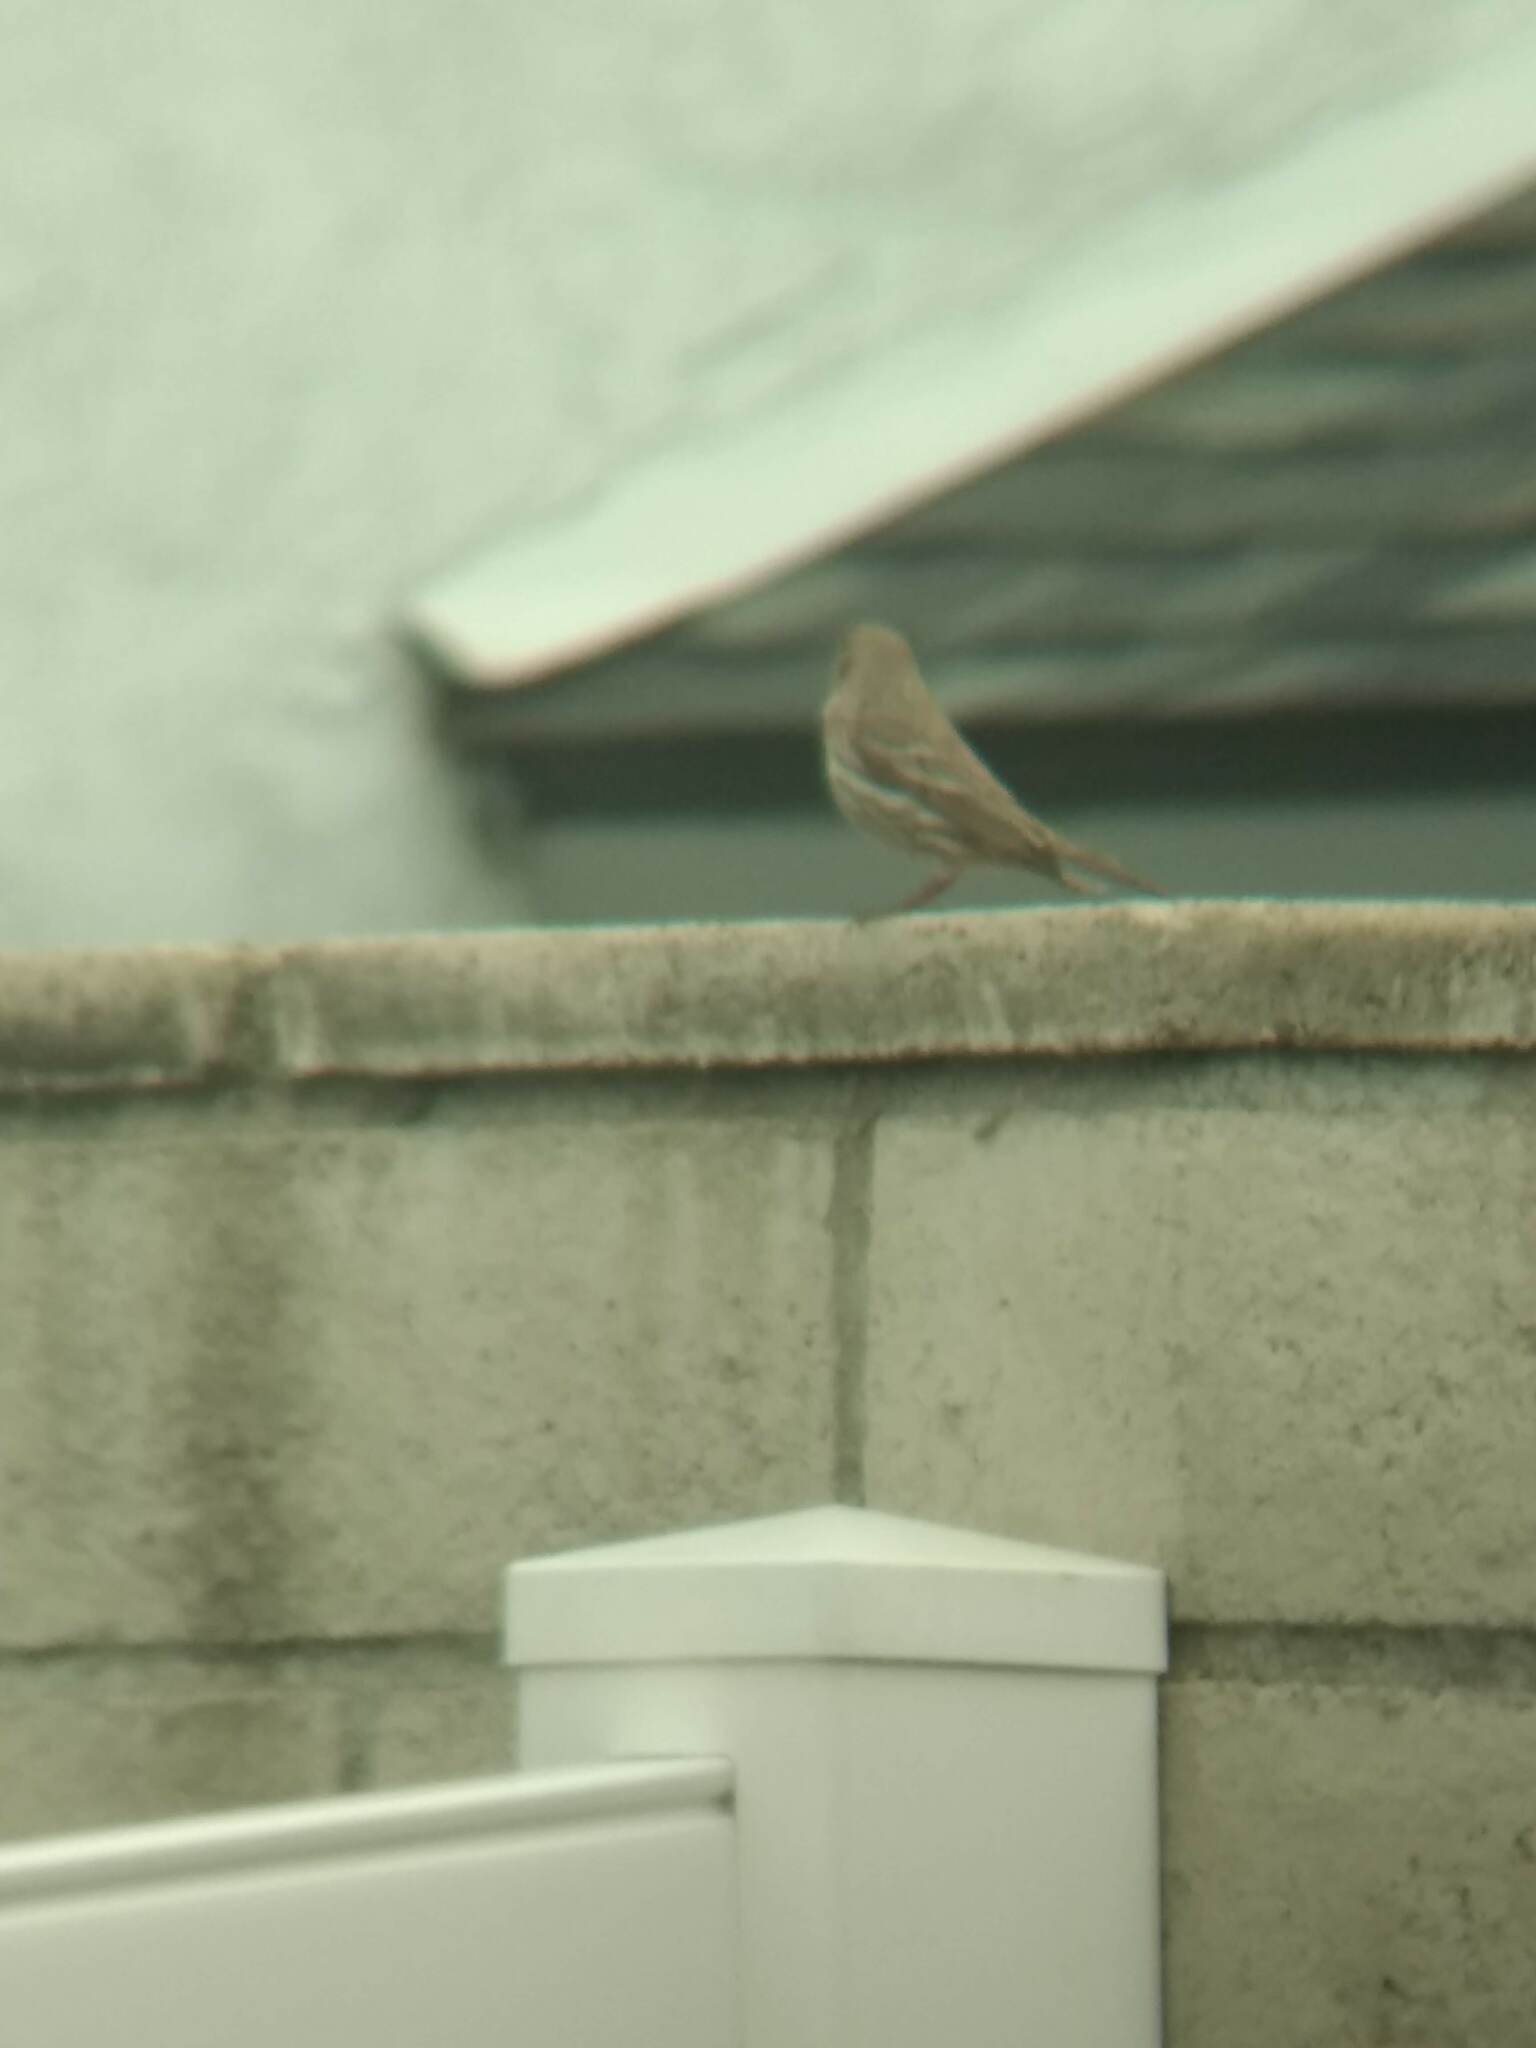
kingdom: Animalia
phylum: Chordata
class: Aves
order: Passeriformes
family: Fringillidae
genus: Haemorhous
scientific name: Haemorhous mexicanus
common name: House finch
